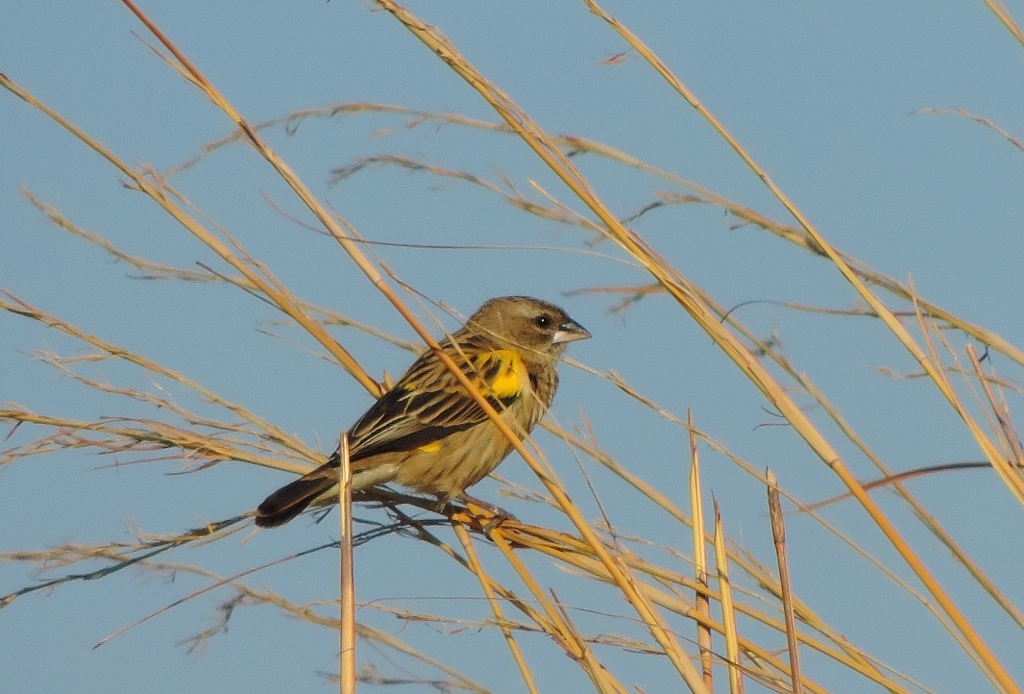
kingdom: Animalia
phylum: Chordata
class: Aves
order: Passeriformes
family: Ploceidae
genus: Euplectes
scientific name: Euplectes capensis
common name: Yellow bishop
